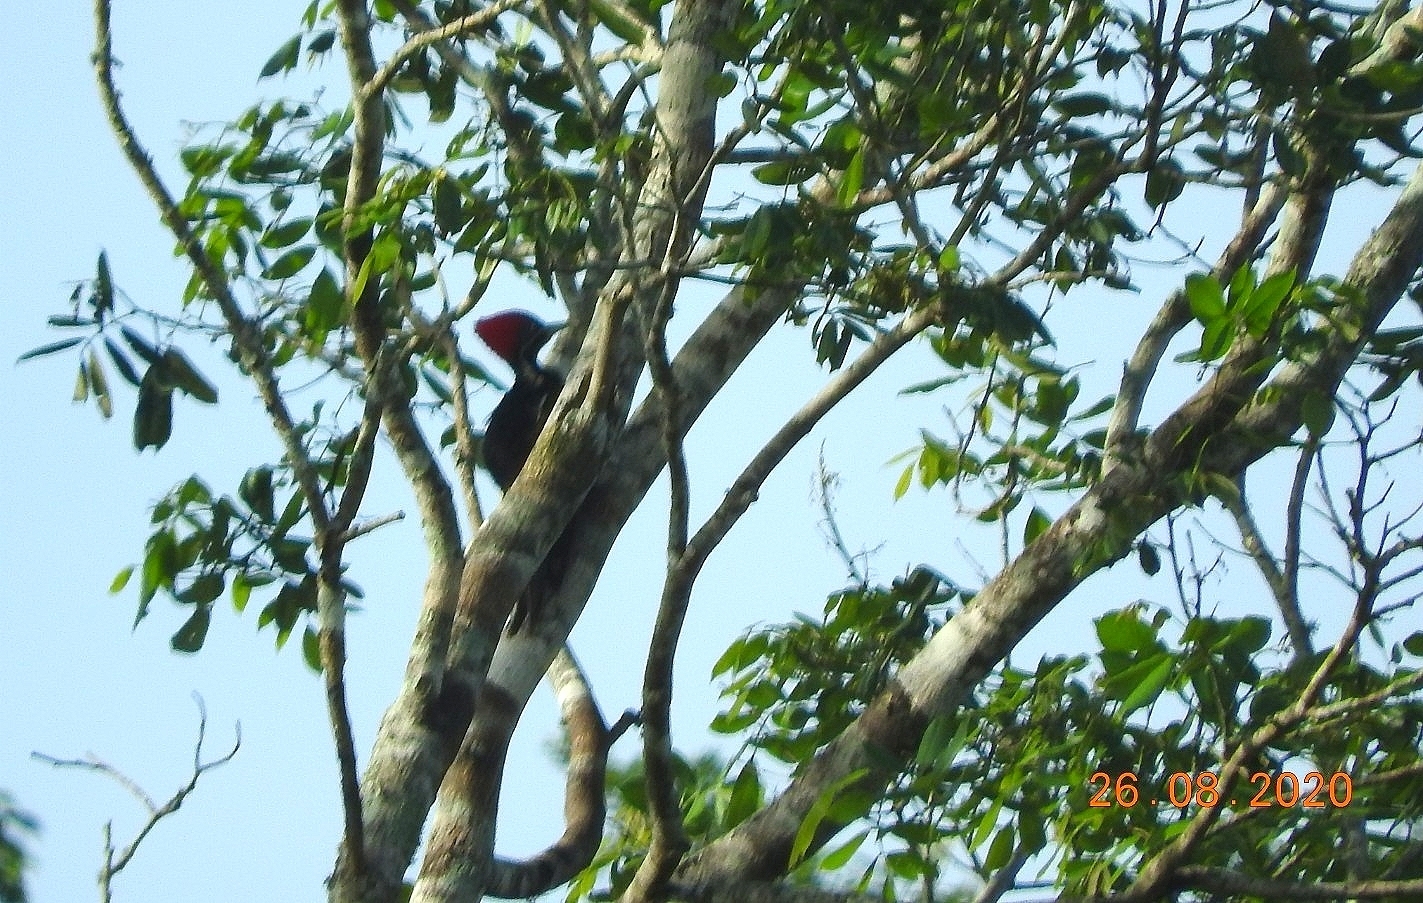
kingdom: Animalia
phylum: Chordata
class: Aves
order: Piciformes
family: Picidae
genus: Dryocopus
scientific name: Dryocopus lineatus
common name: Lineated woodpecker
